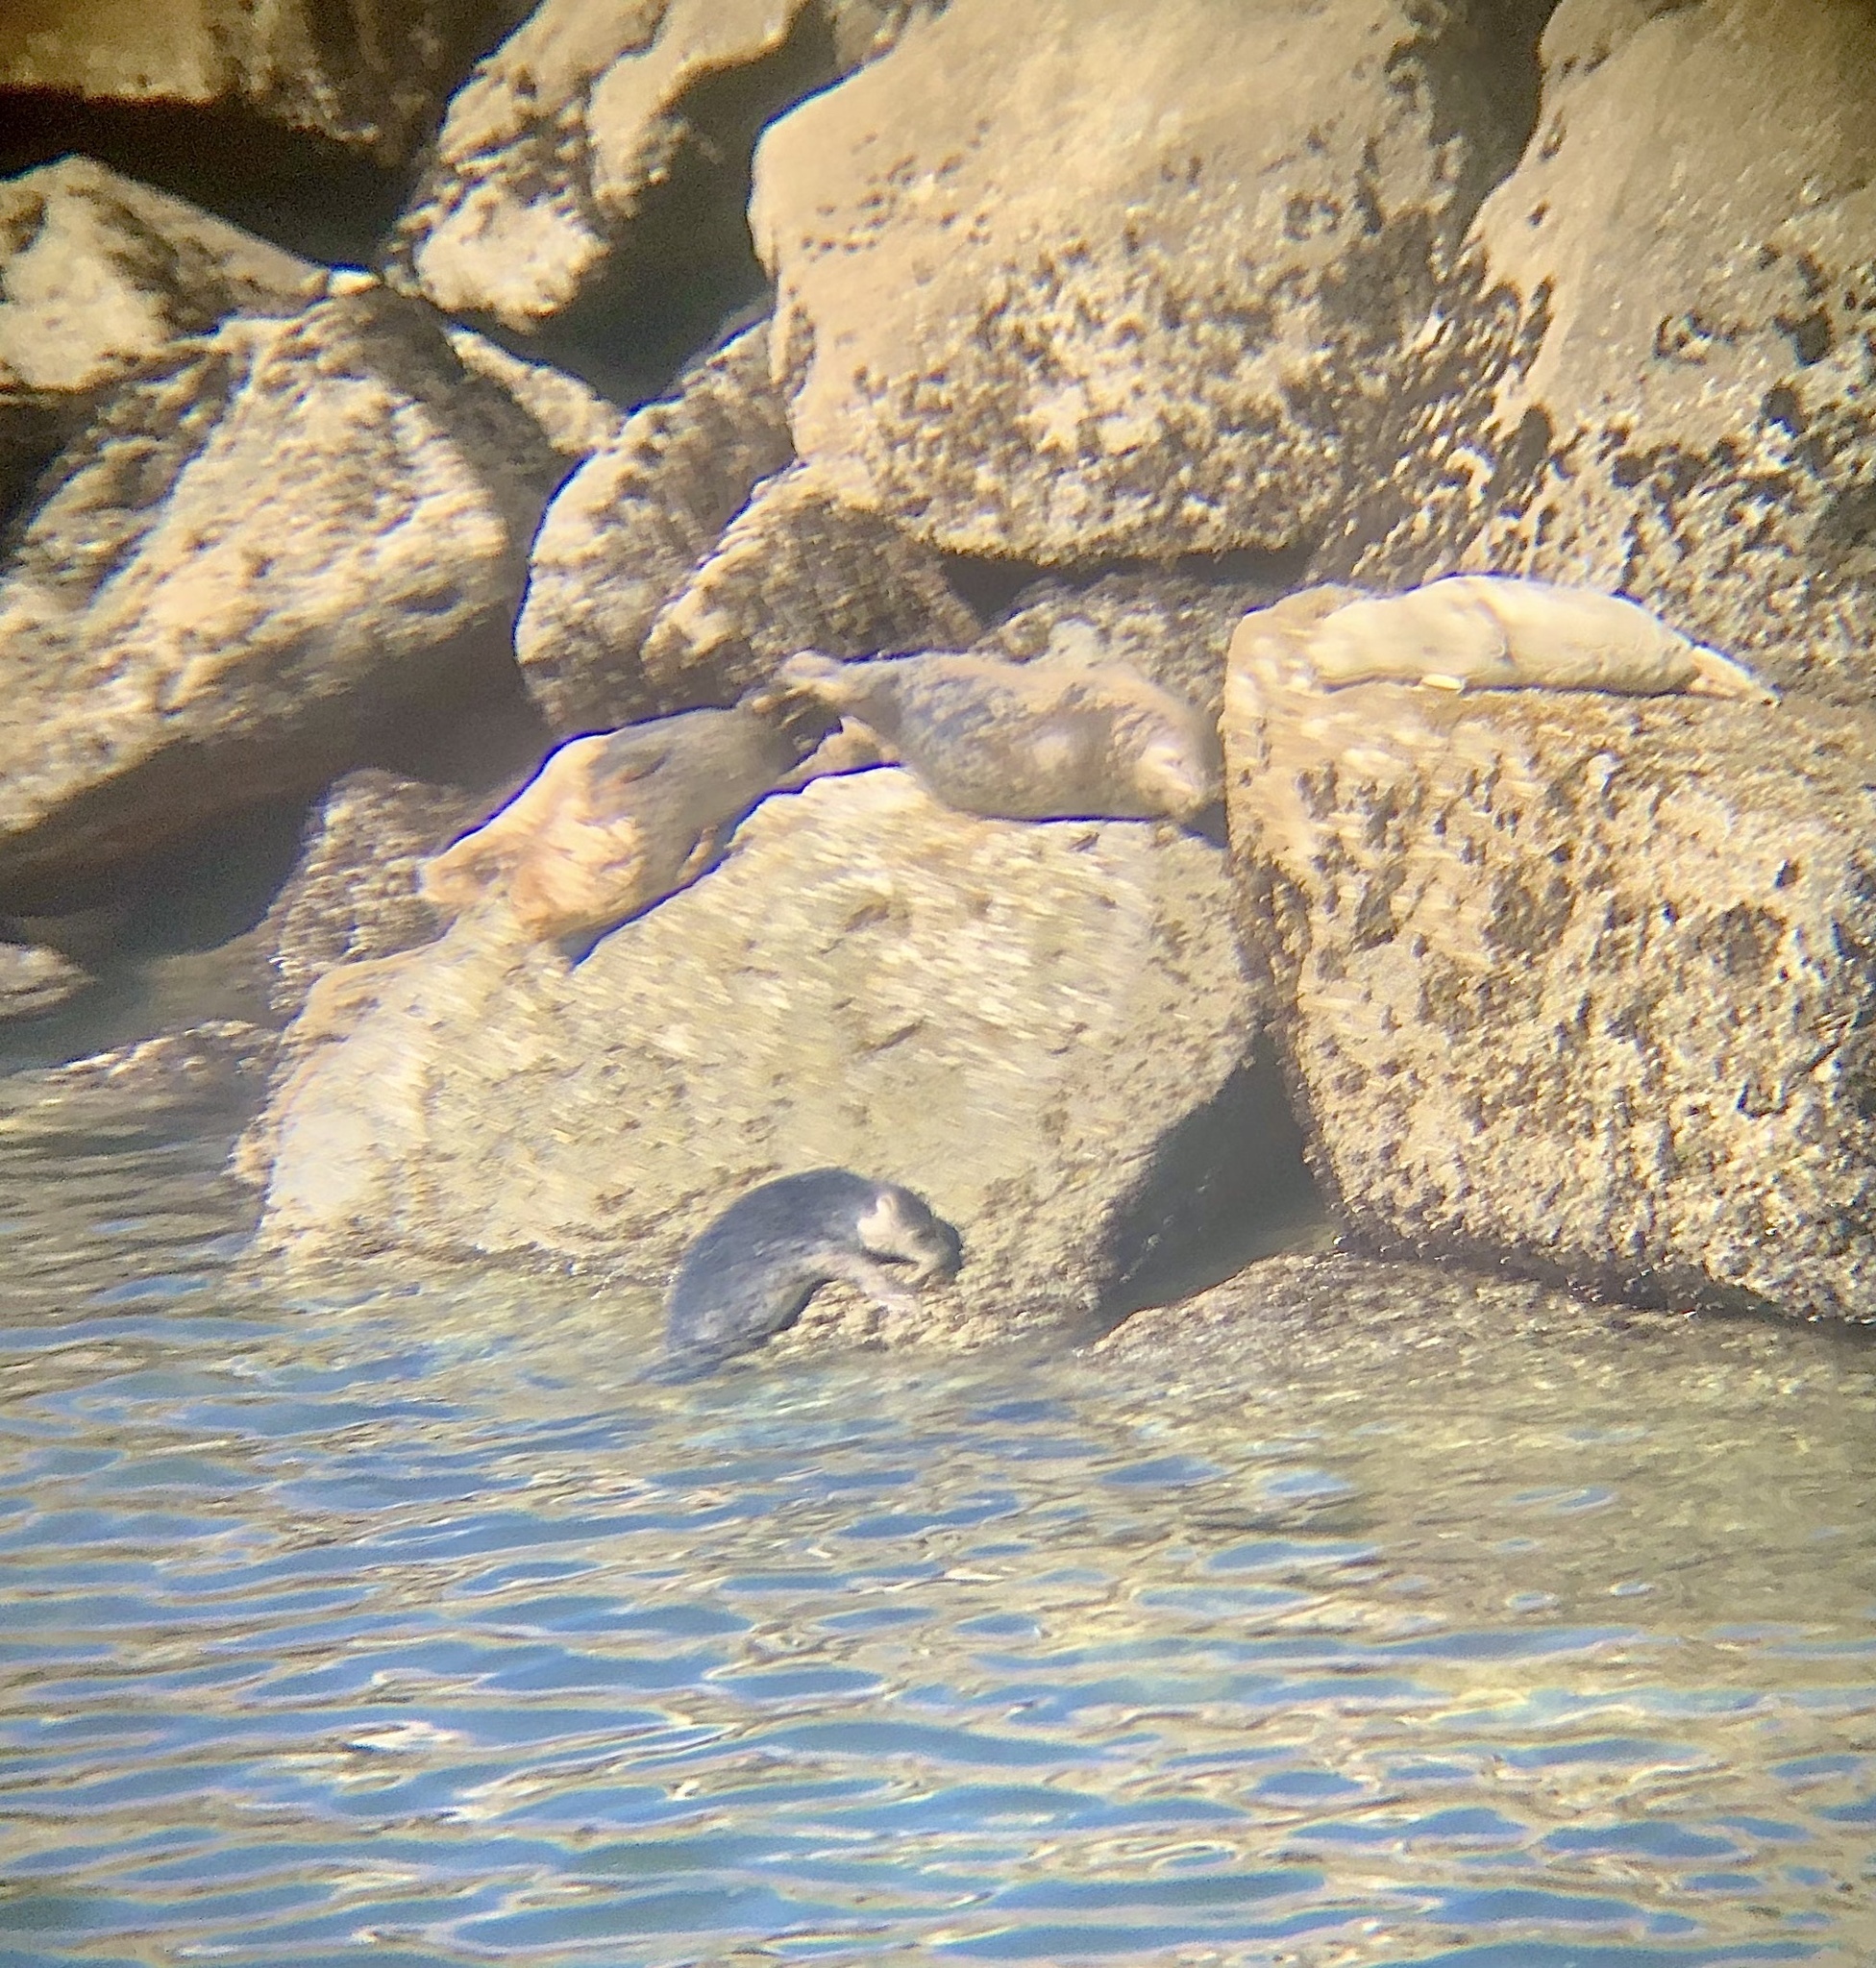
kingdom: Animalia
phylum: Chordata
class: Mammalia
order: Carnivora
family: Phocidae
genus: Phoca
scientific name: Phoca vitulina
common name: Harbor seal
